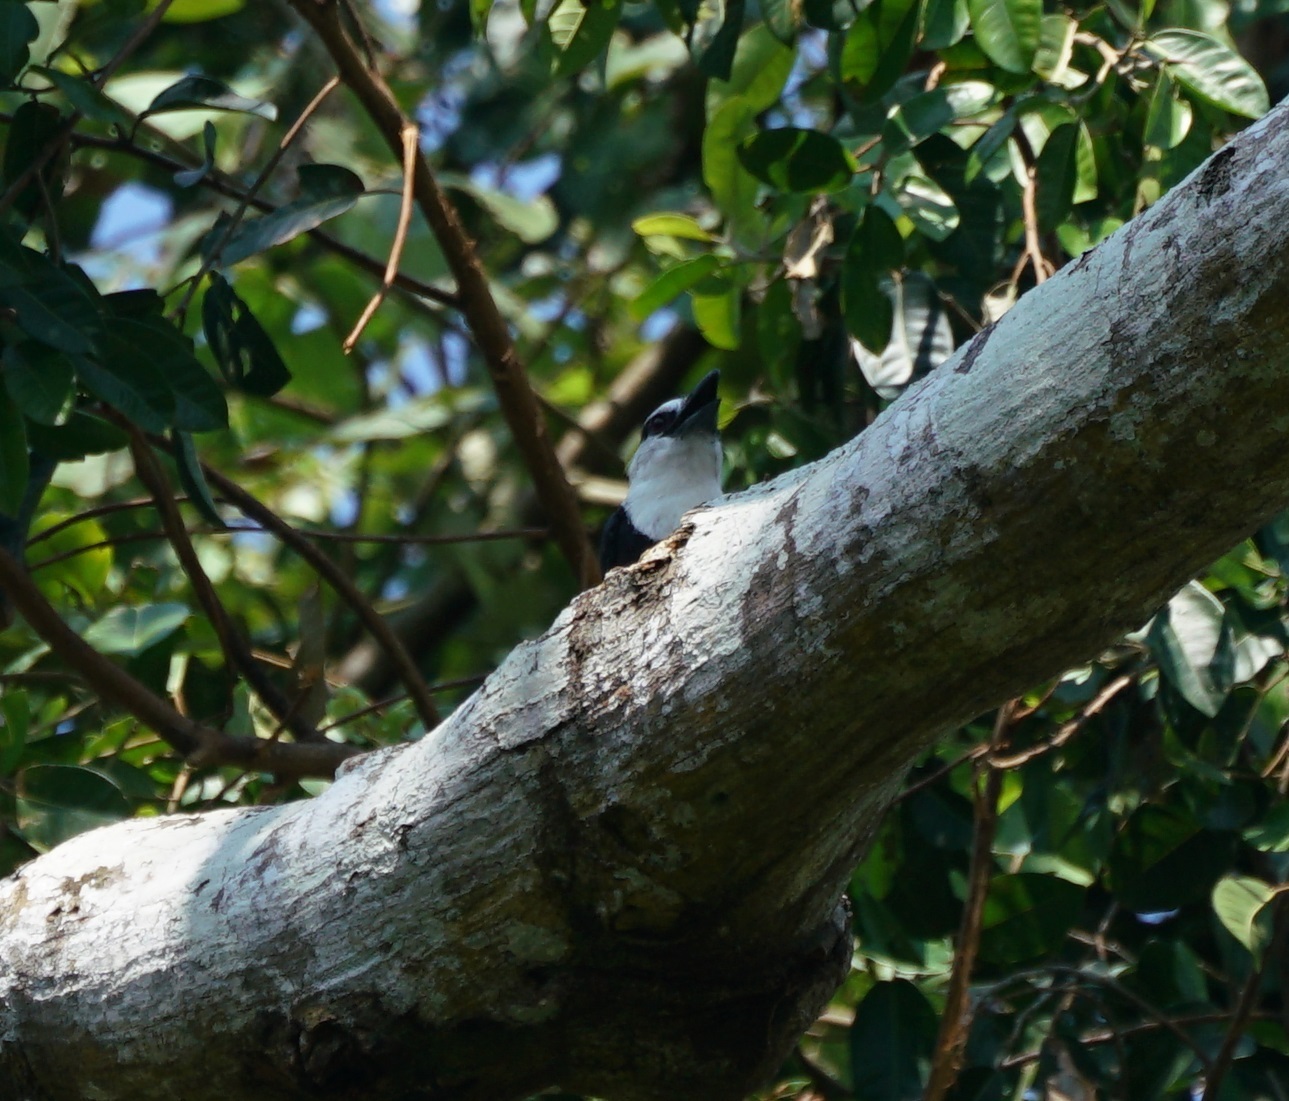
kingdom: Animalia
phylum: Chordata
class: Aves
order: Piciformes
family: Bucconidae
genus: Notharchus
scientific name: Notharchus hyperrhynchus
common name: White-necked puffbird
